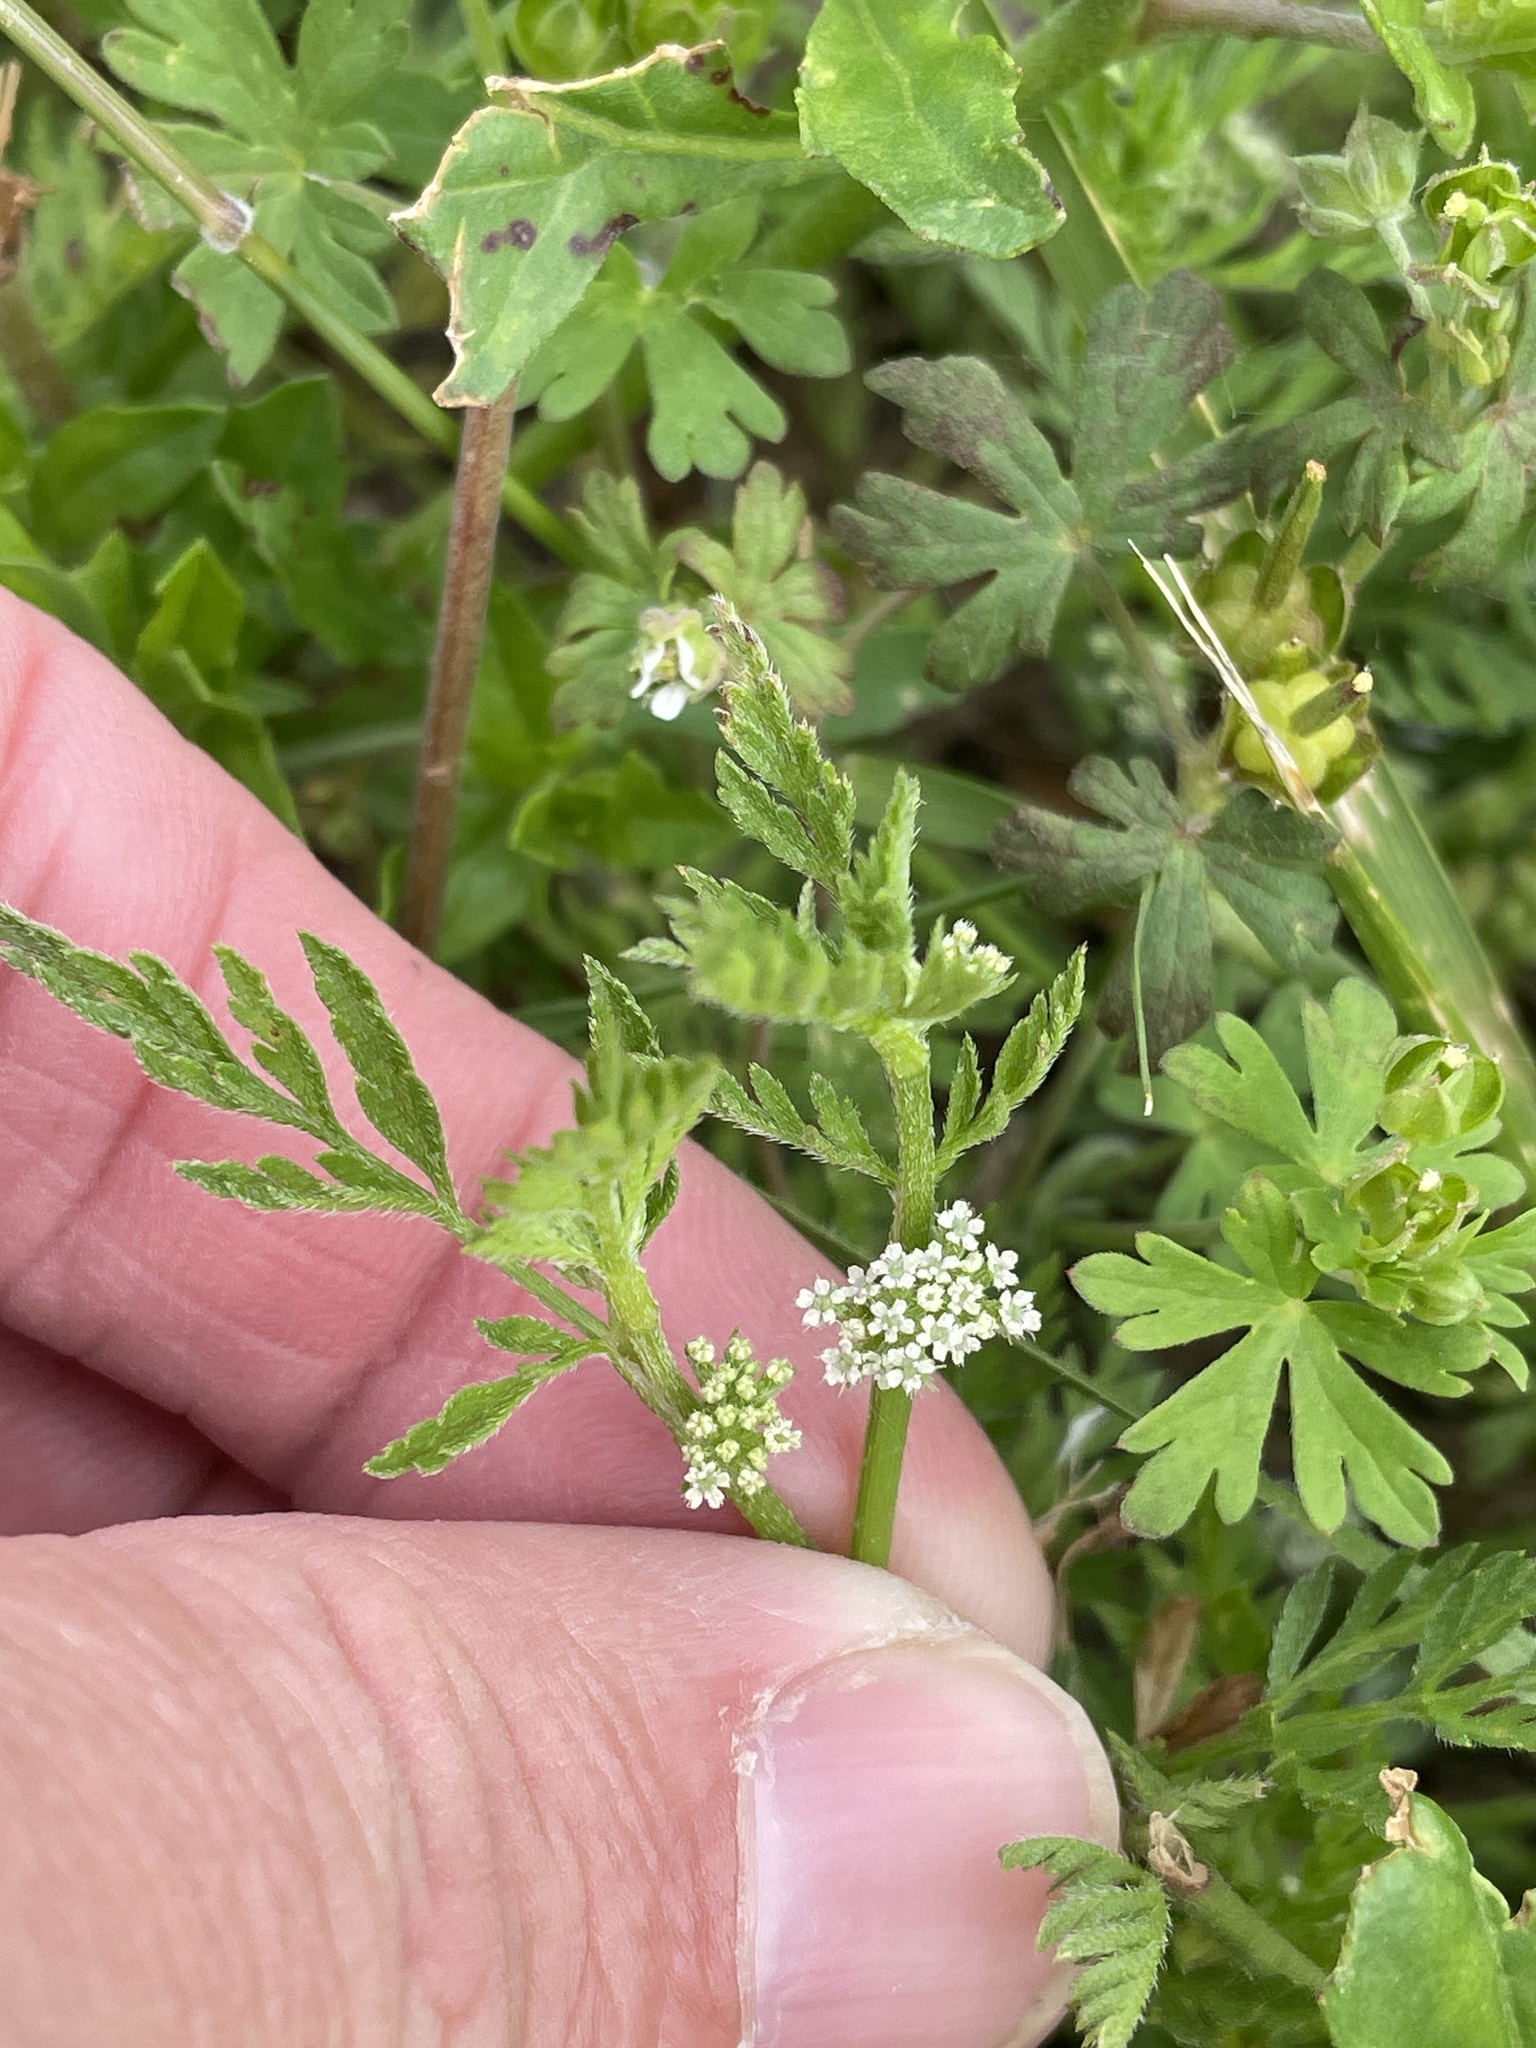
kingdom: Plantae
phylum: Tracheophyta
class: Magnoliopsida
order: Apiales
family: Apiaceae
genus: Torilis
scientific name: Torilis nodosa
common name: Knotted hedge-parsley
